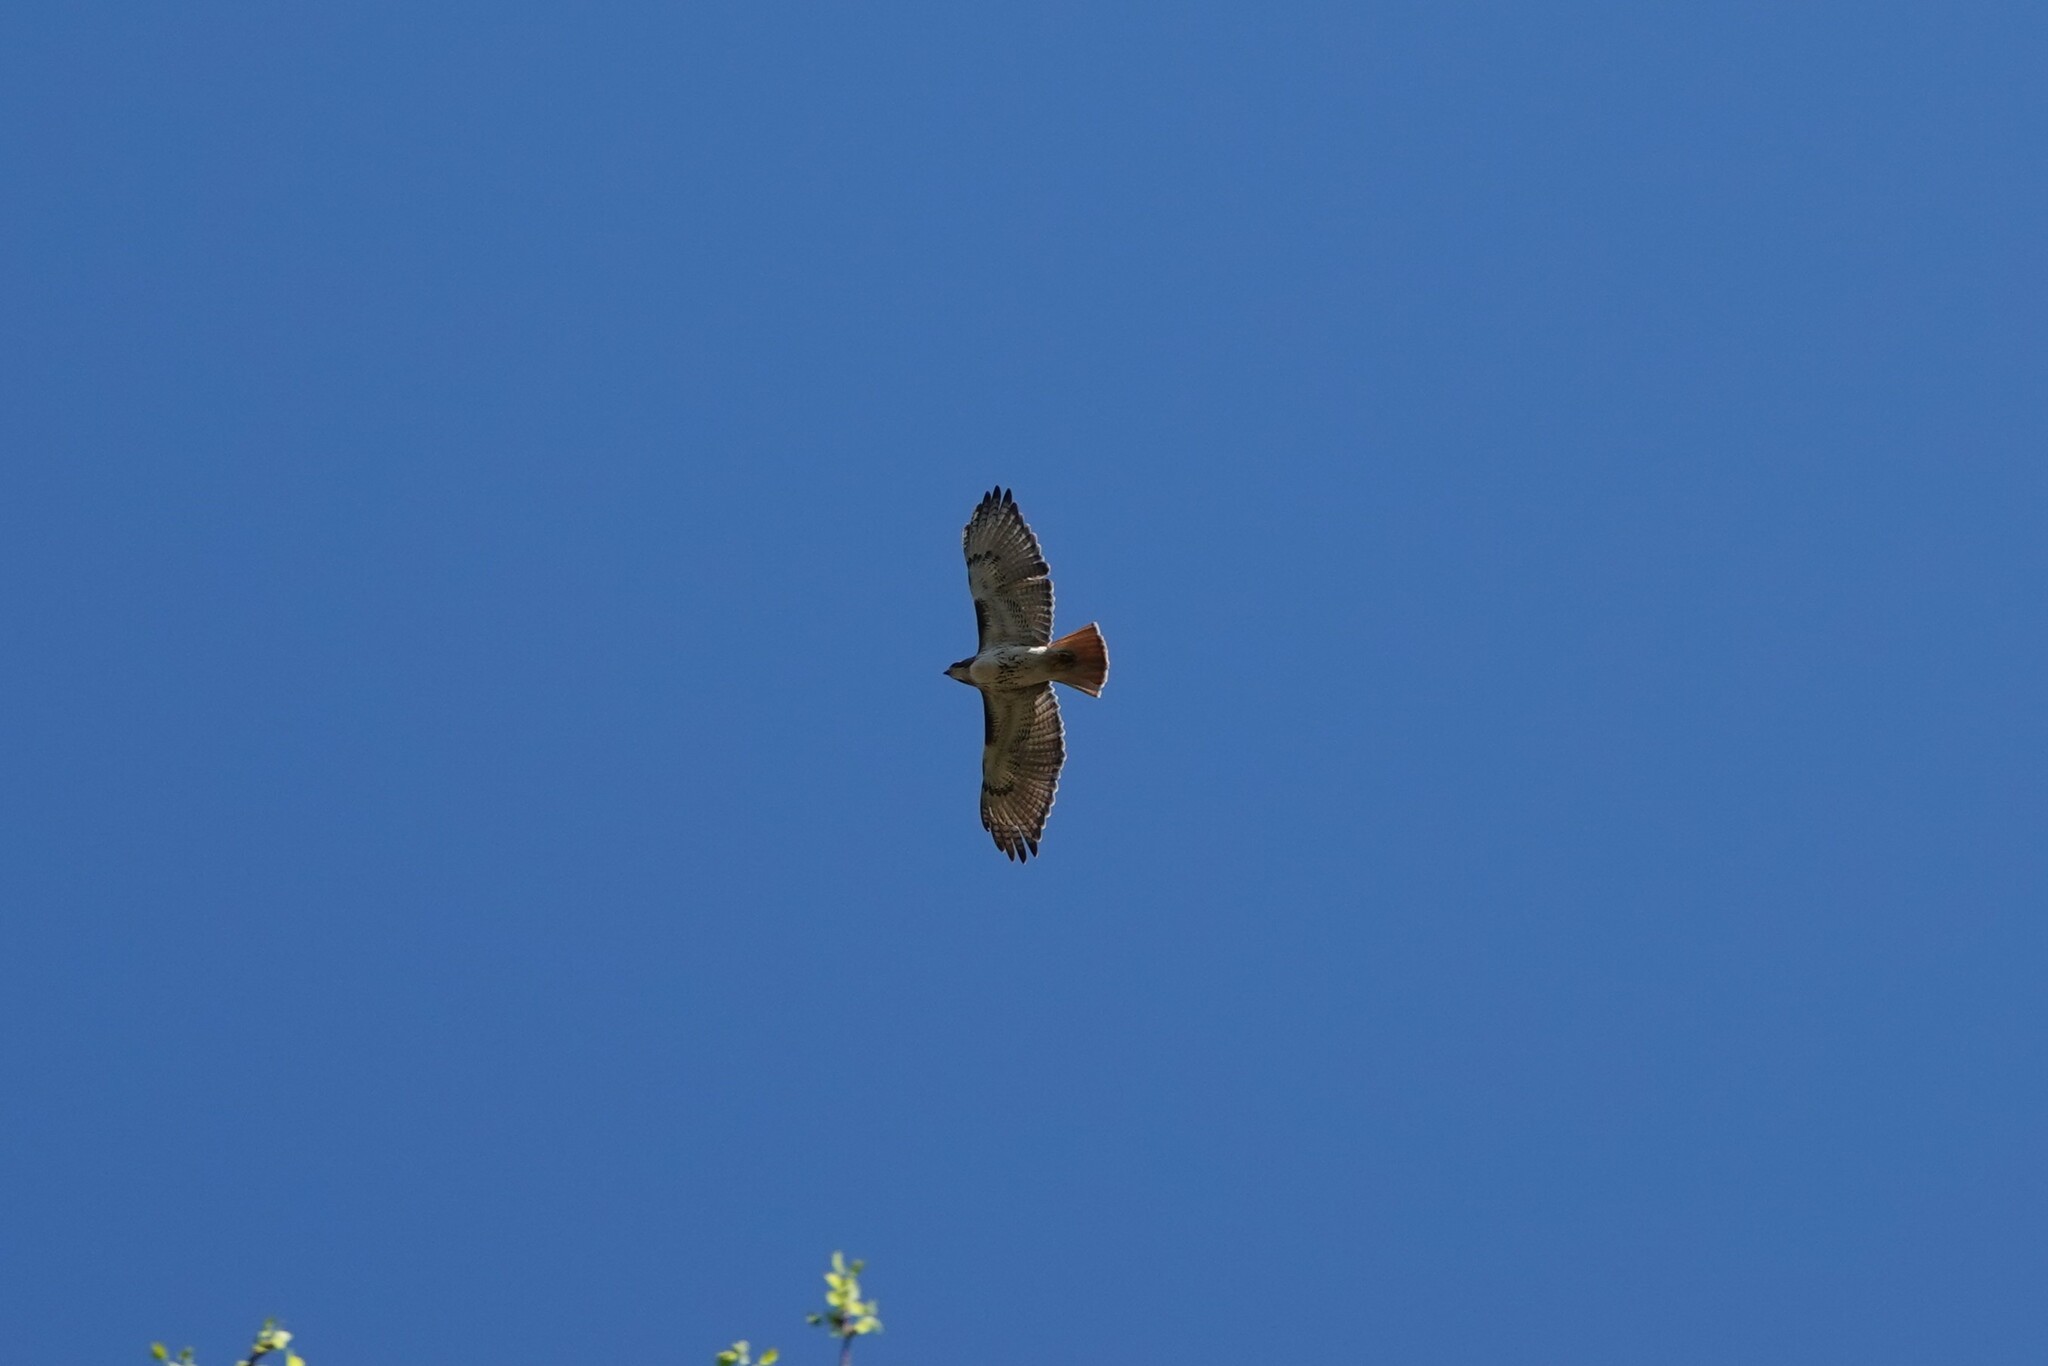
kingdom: Animalia
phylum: Chordata
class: Aves
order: Accipitriformes
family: Accipitridae
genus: Buteo
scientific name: Buteo jamaicensis
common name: Red-tailed hawk
